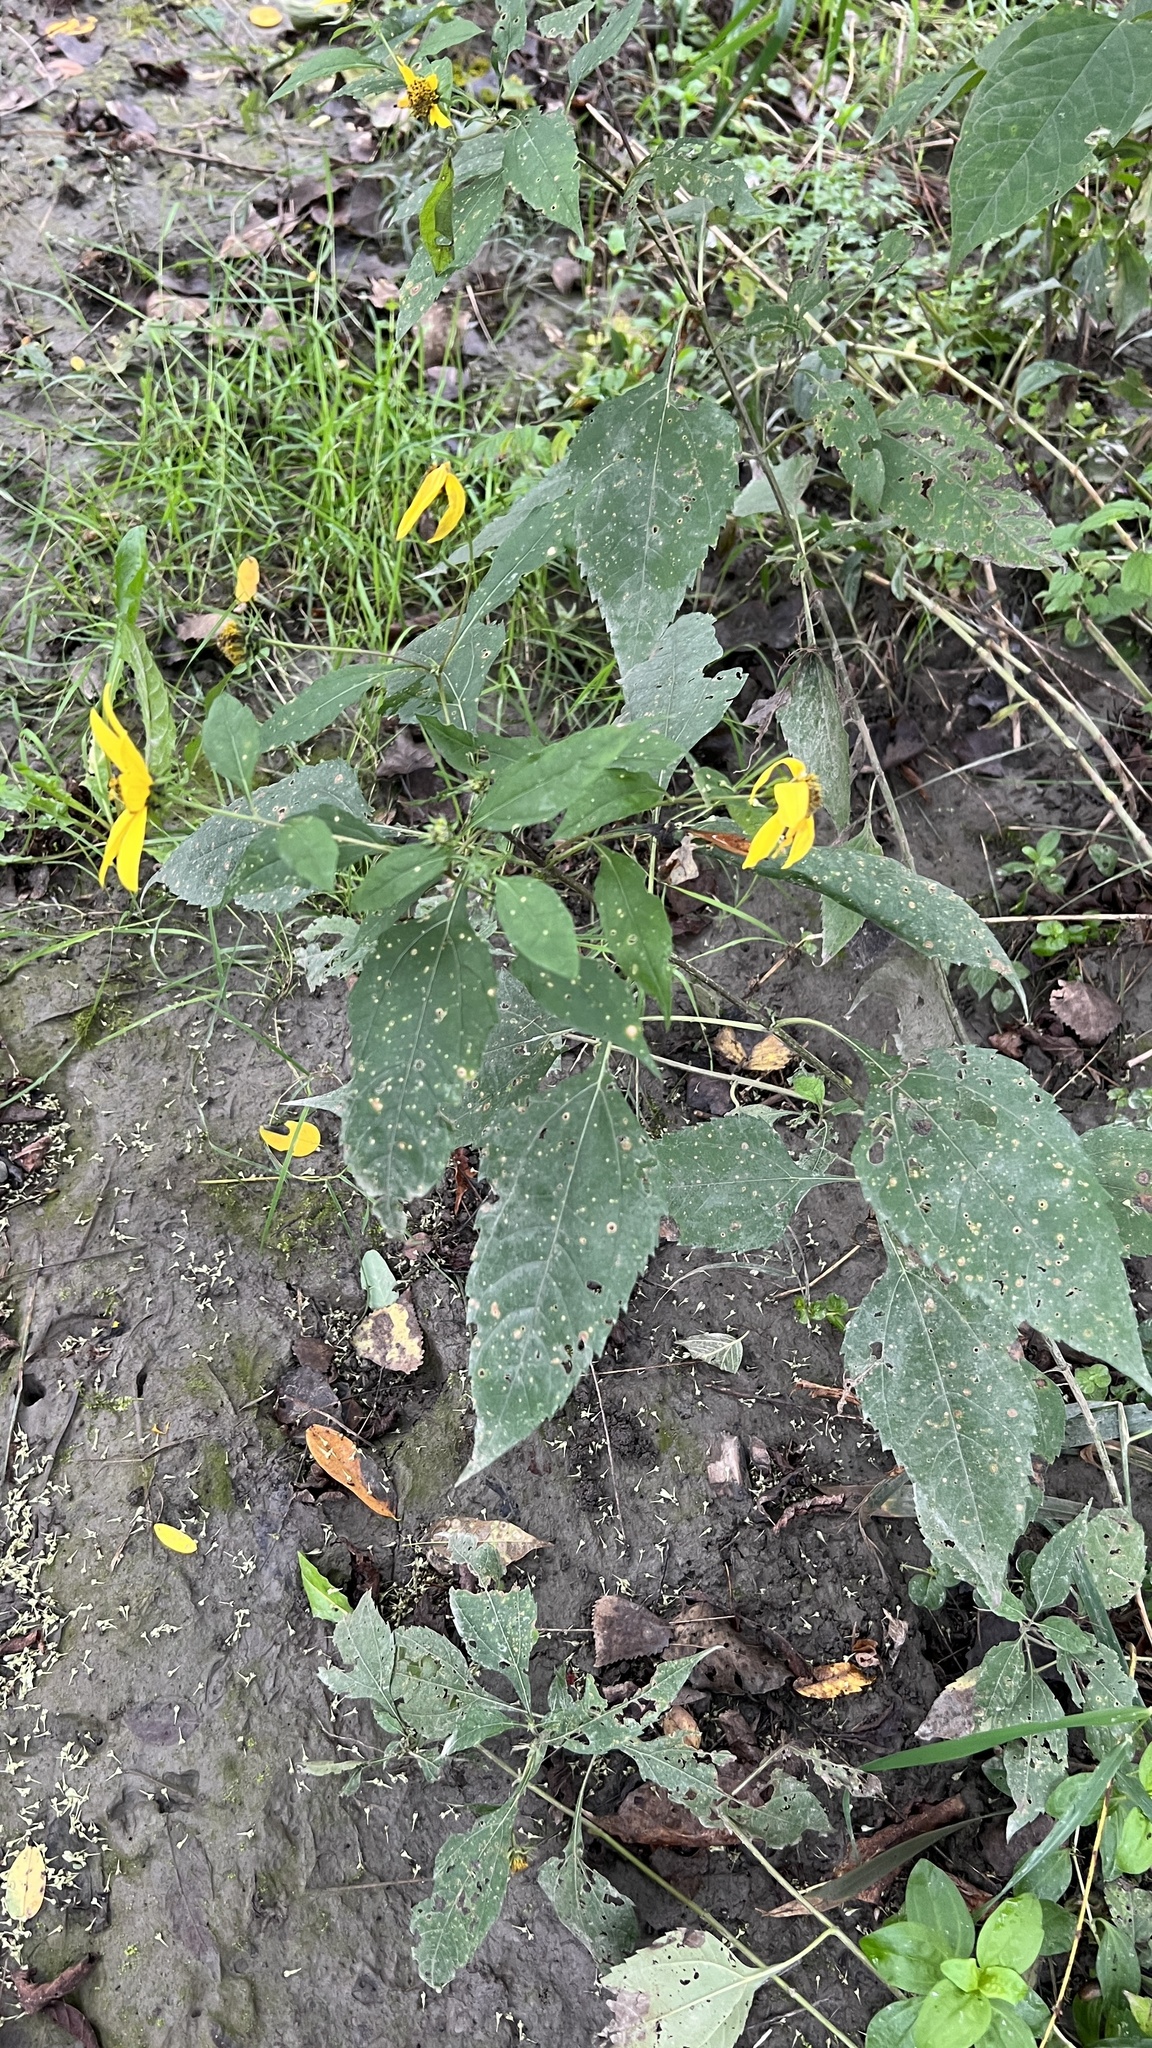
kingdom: Plantae
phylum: Tracheophyta
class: Magnoliopsida
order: Asterales
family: Asteraceae
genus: Helianthus
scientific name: Helianthus decapetalus
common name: Thin-leaved sunflower
